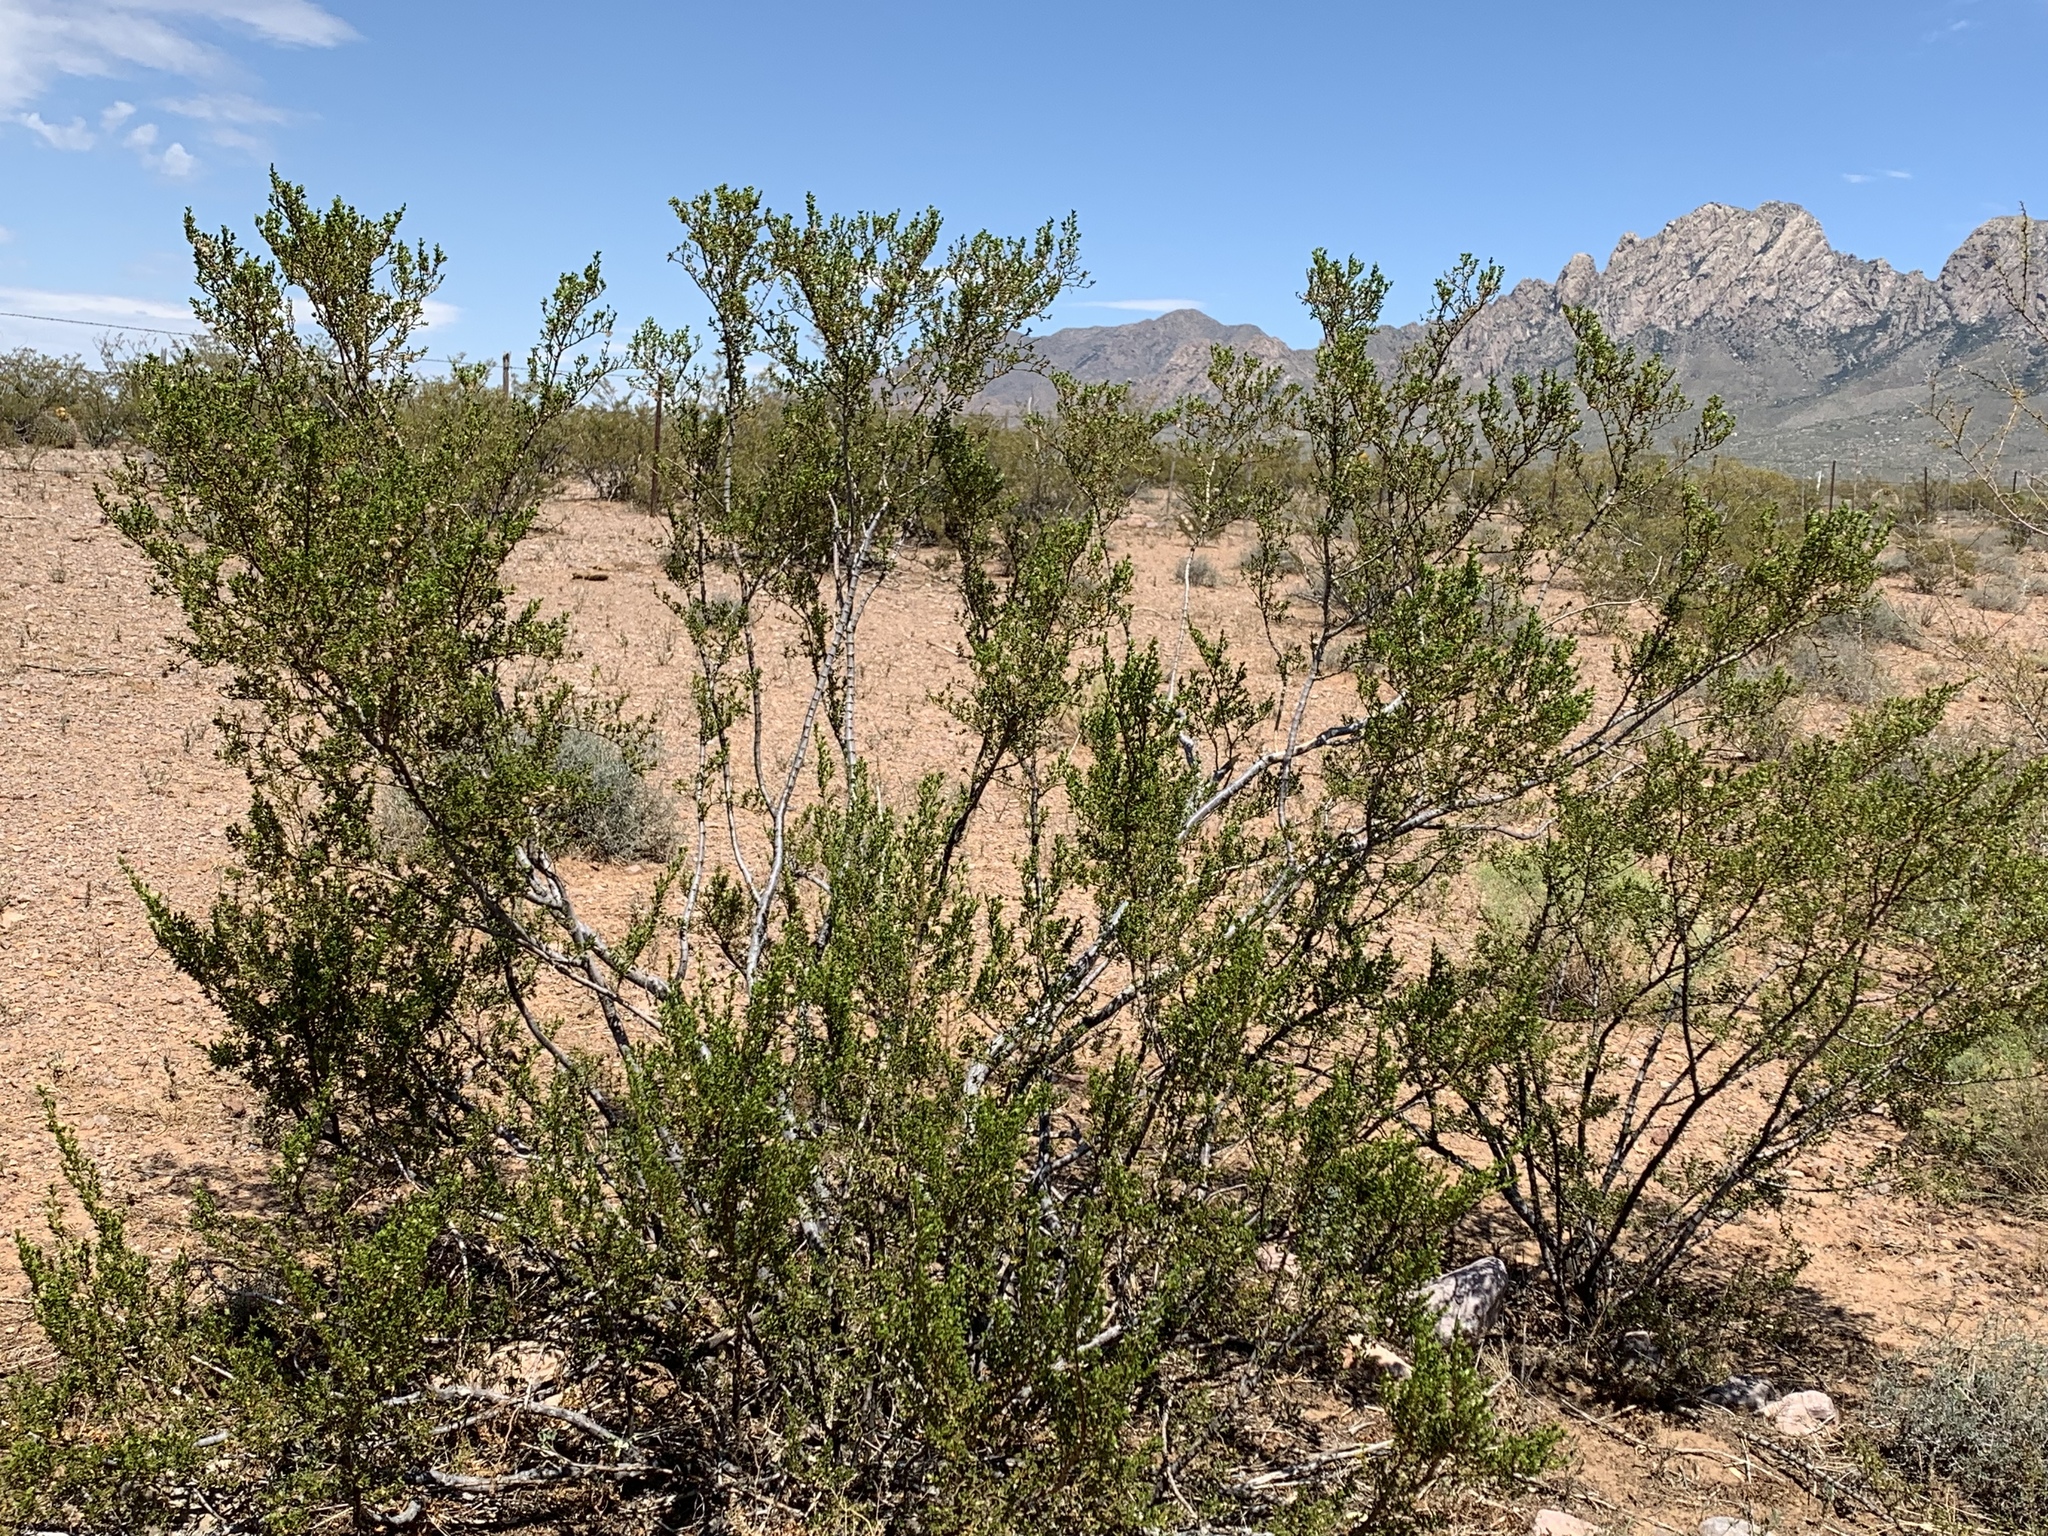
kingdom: Plantae
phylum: Tracheophyta
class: Magnoliopsida
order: Zygophyllales
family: Zygophyllaceae
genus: Larrea
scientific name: Larrea tridentata
